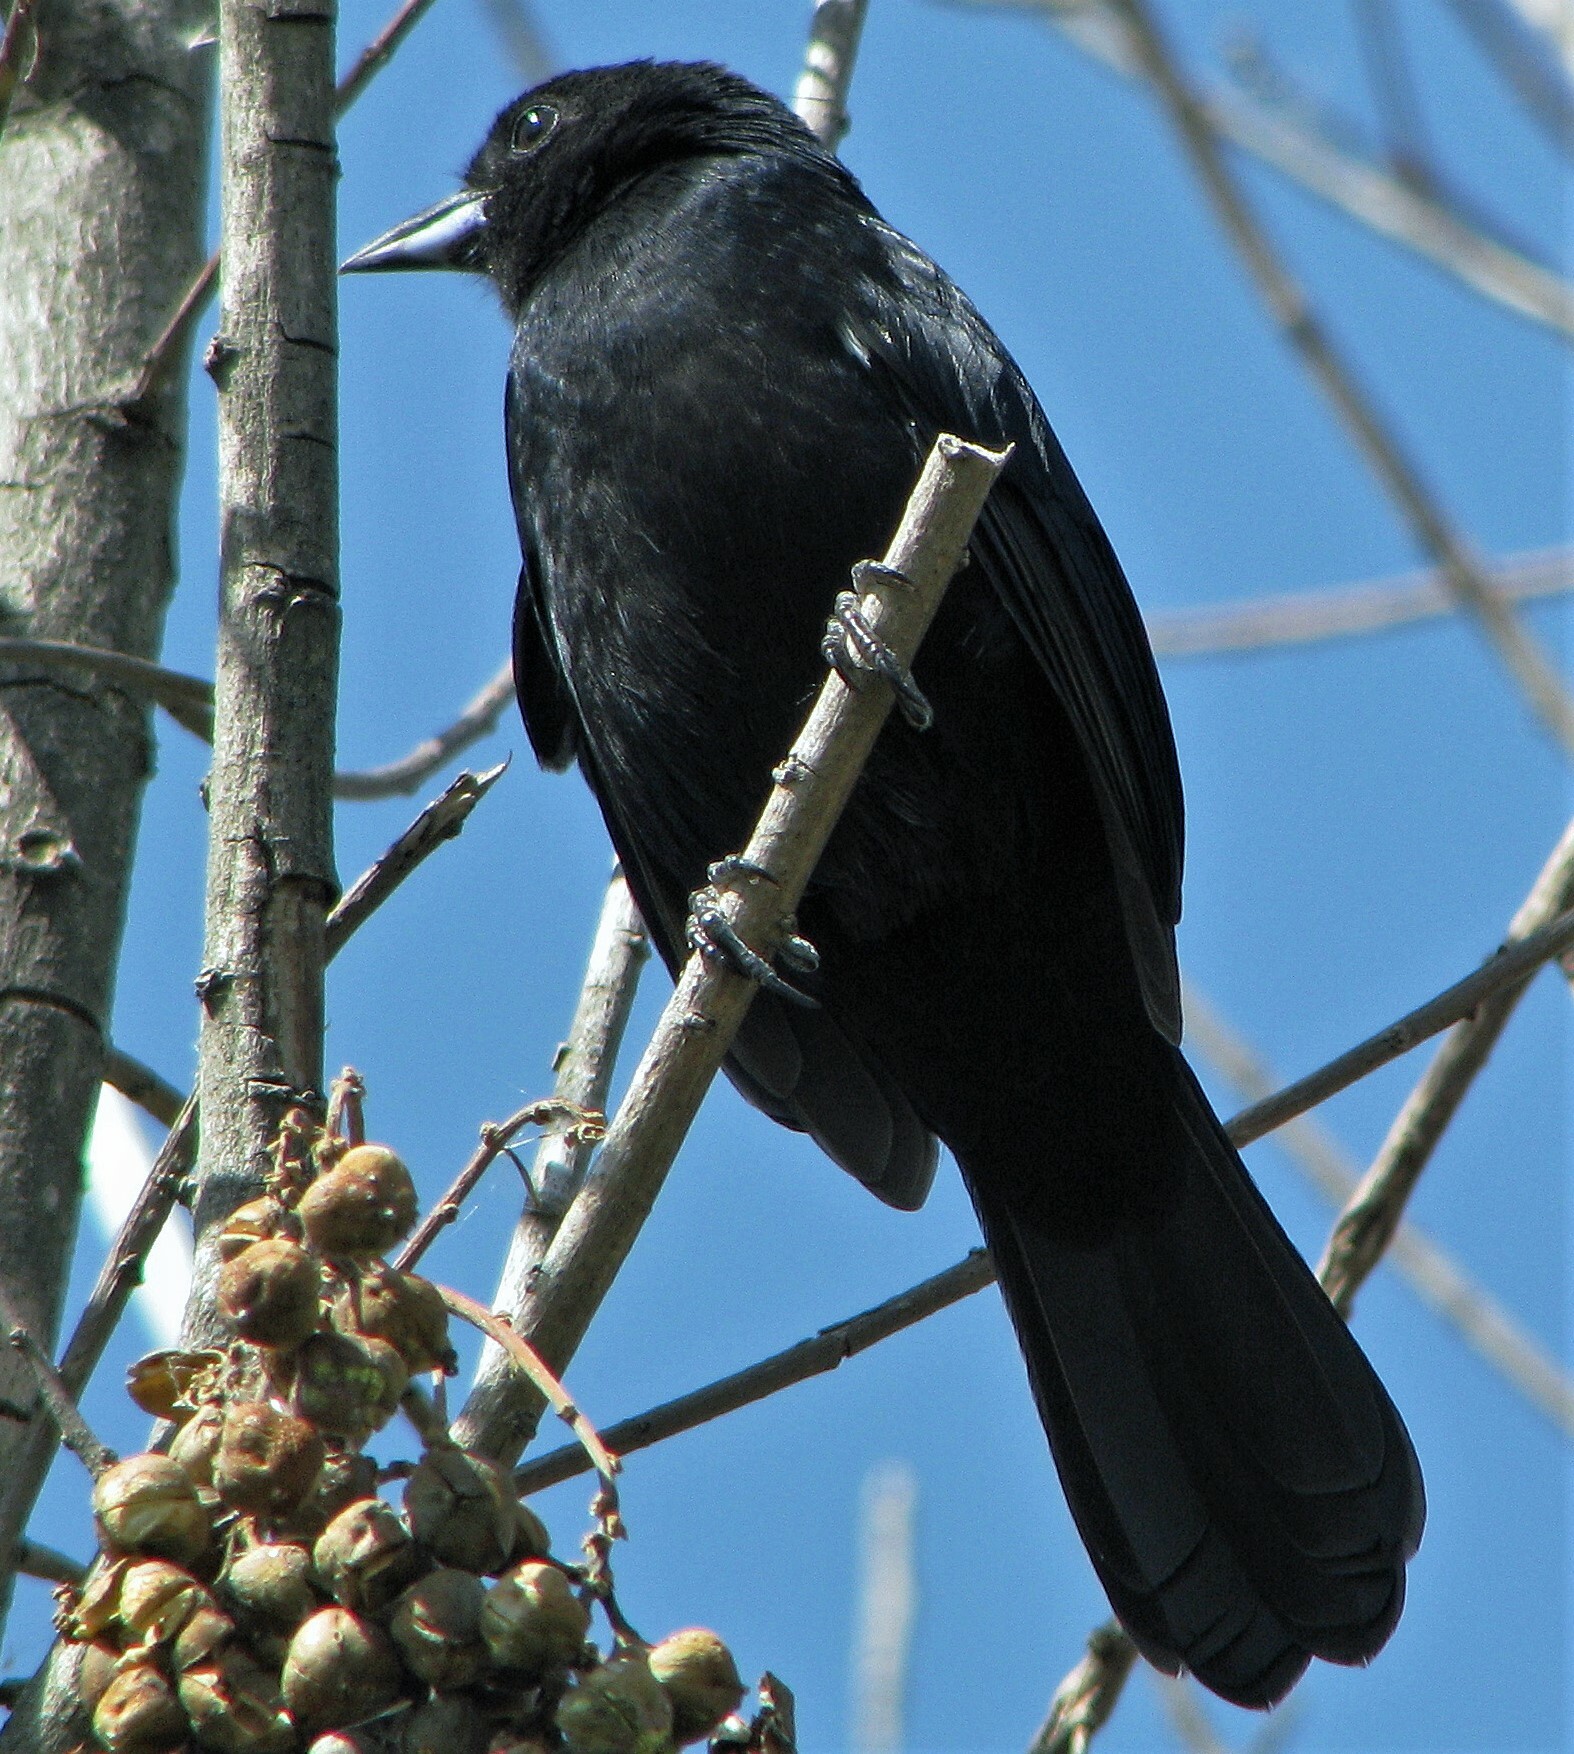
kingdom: Animalia
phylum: Chordata
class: Aves
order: Passeriformes
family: Thraupidae
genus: Tachyphonus
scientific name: Tachyphonus rufus
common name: White-lined tanager
